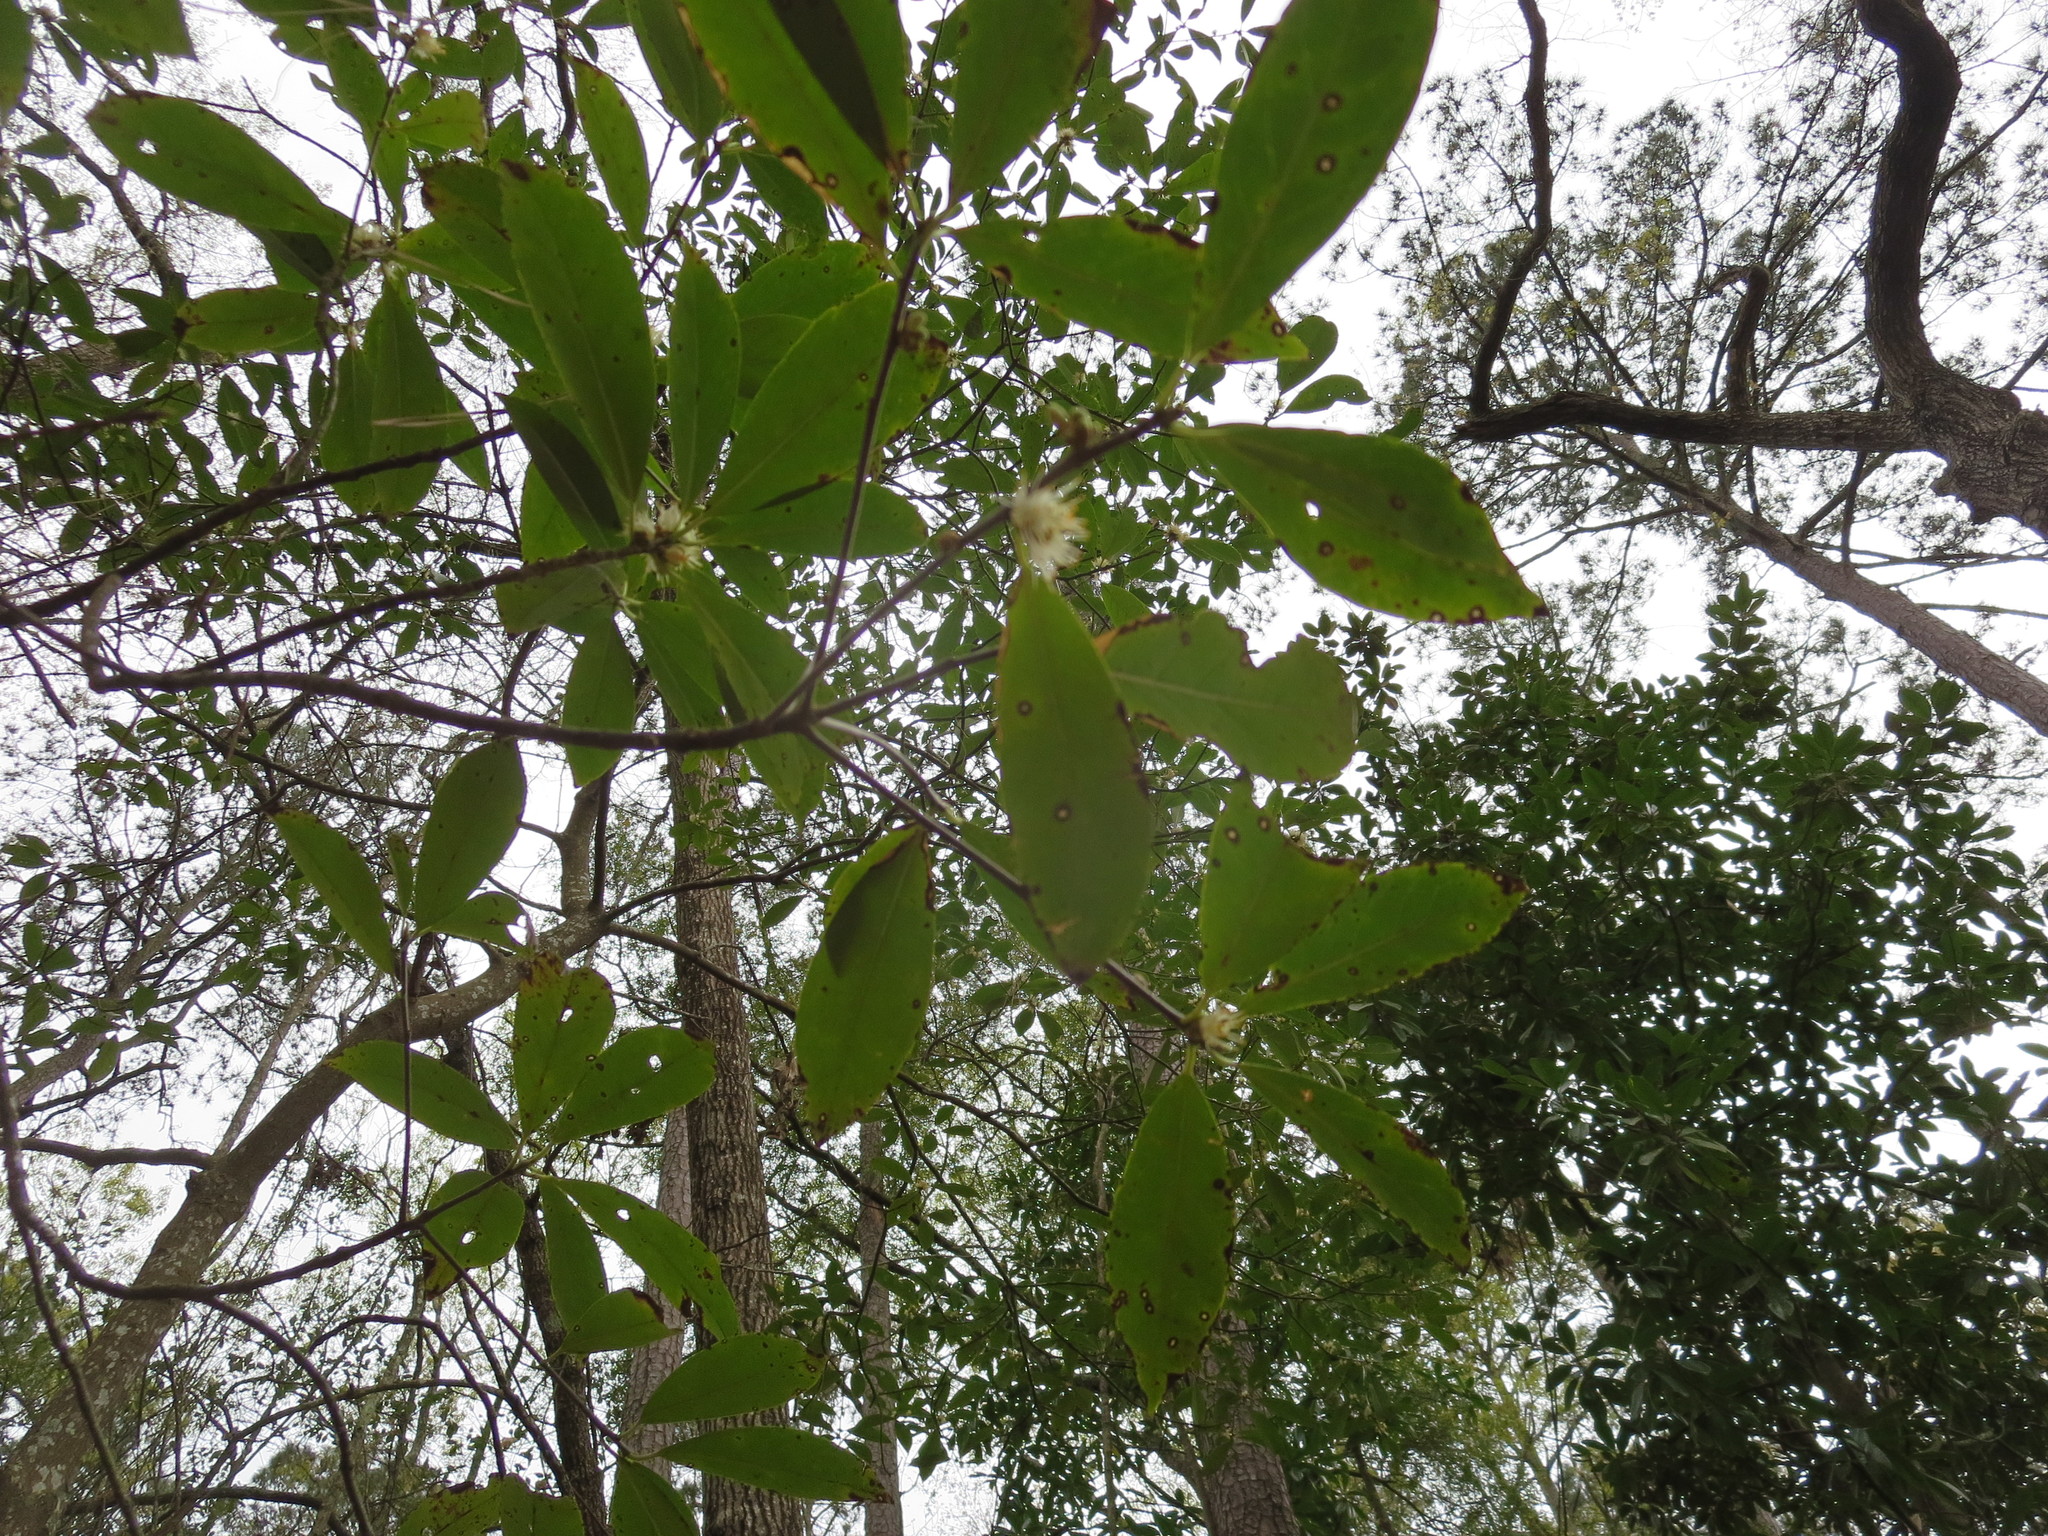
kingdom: Plantae
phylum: Tracheophyta
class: Magnoliopsida
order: Ericales
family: Symplocaceae
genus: Symplocos
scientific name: Symplocos tinctoria
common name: Horse-sugar
